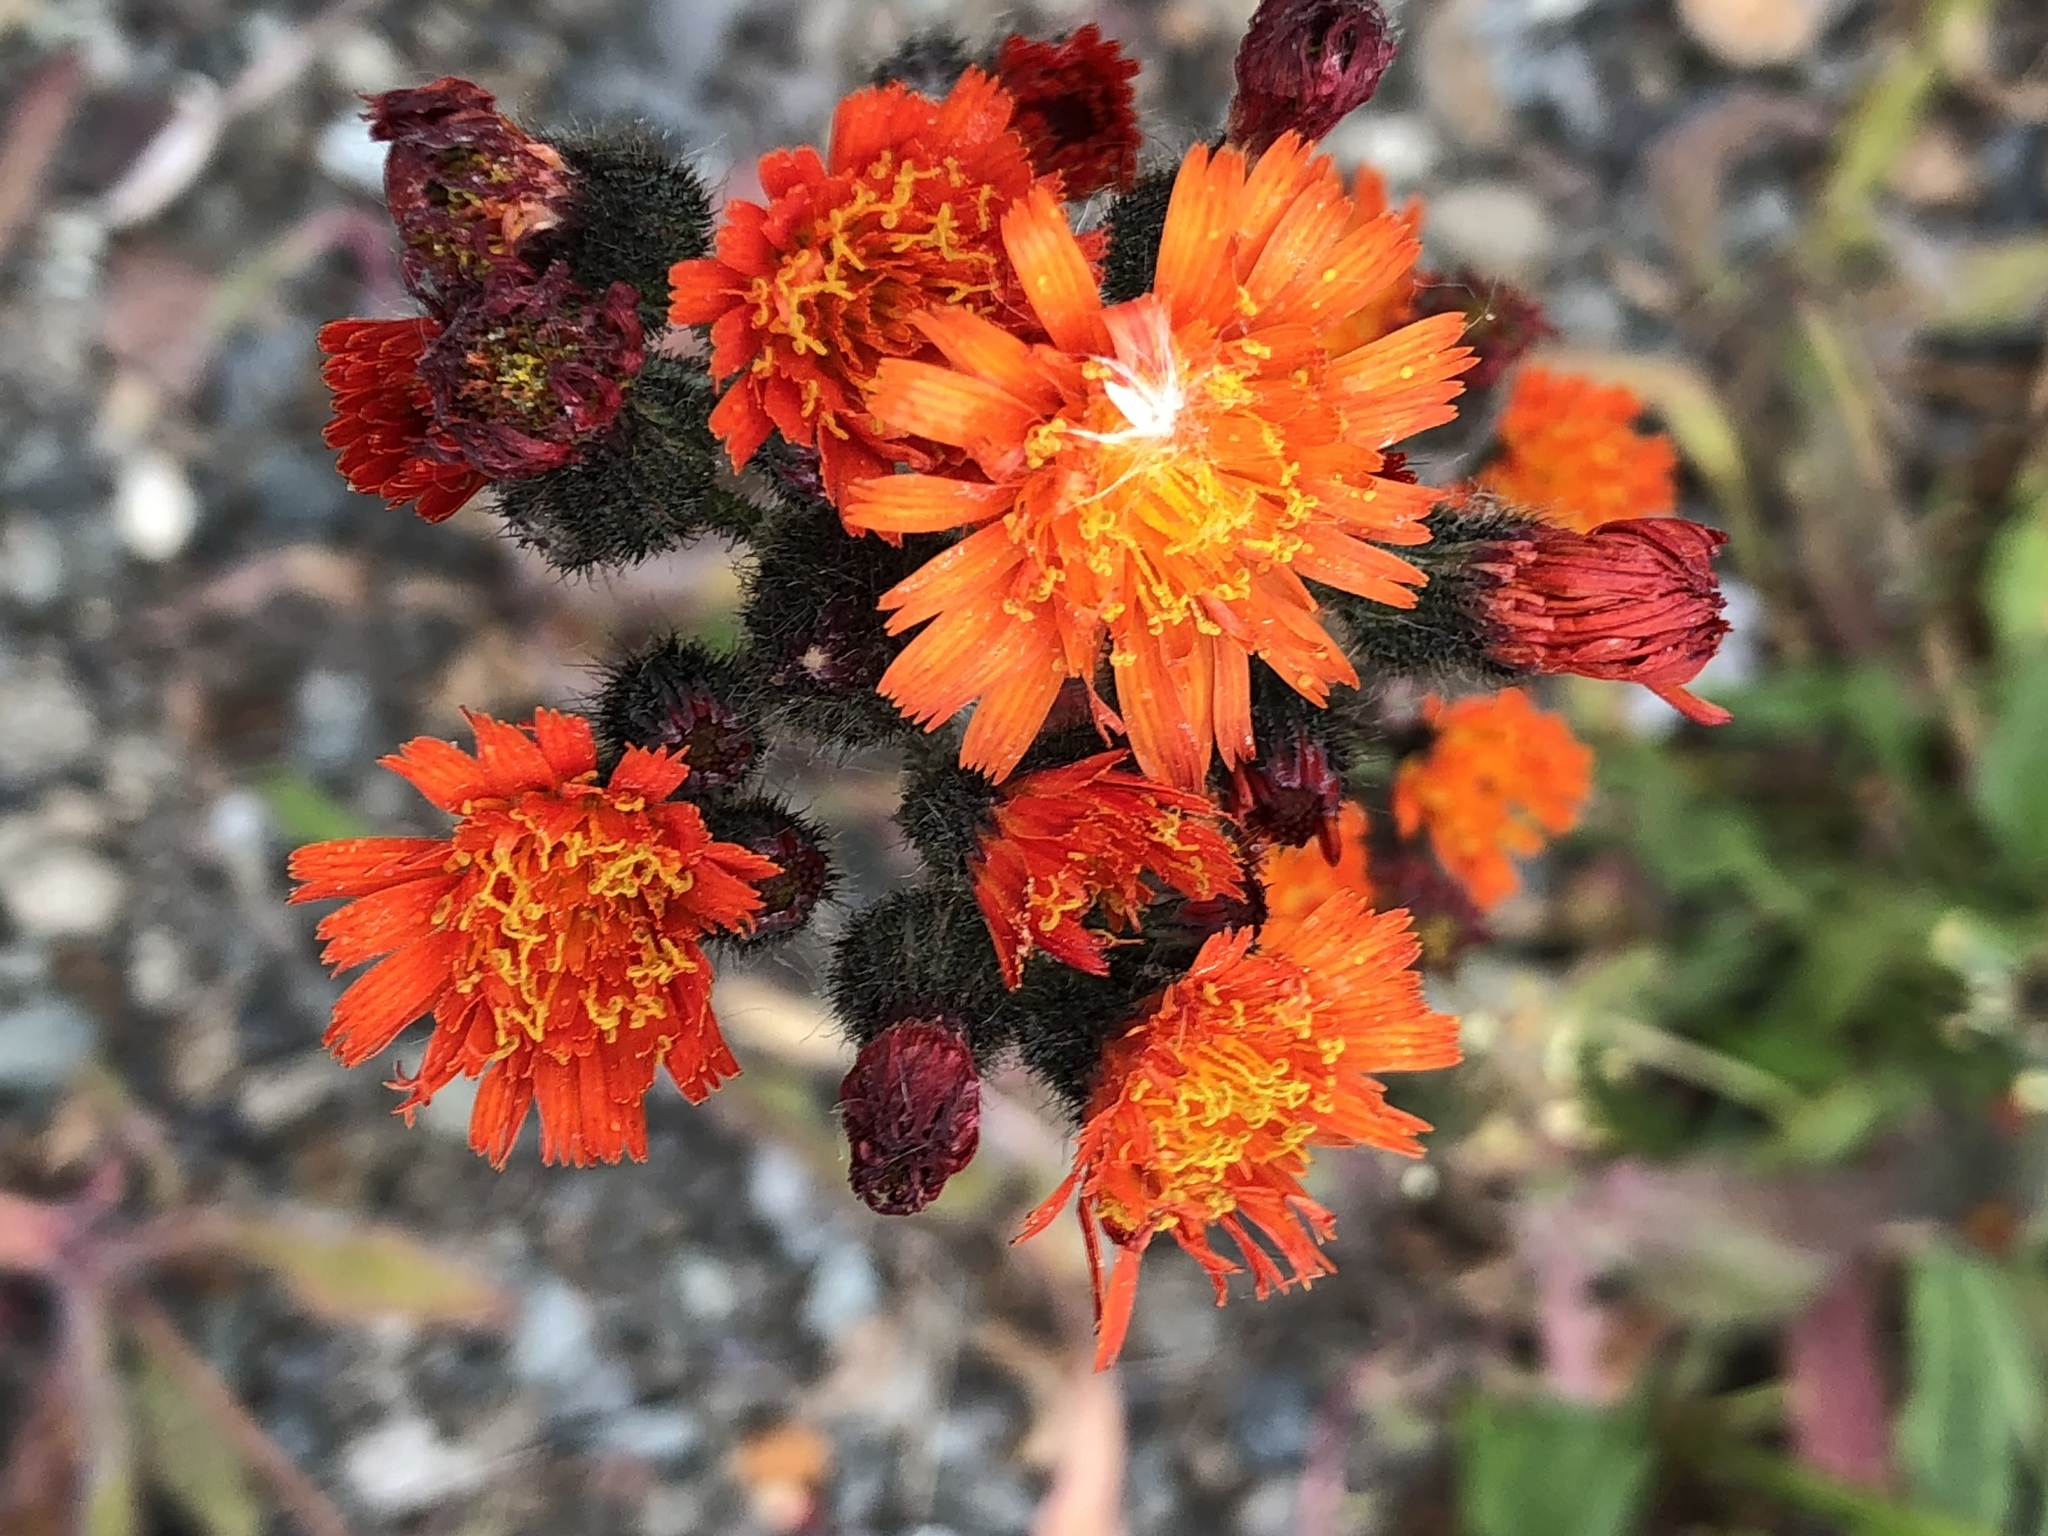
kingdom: Plantae
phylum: Tracheophyta
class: Magnoliopsida
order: Asterales
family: Asteraceae
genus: Pilosella
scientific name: Pilosella aurantiaca
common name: Fox-and-cubs
